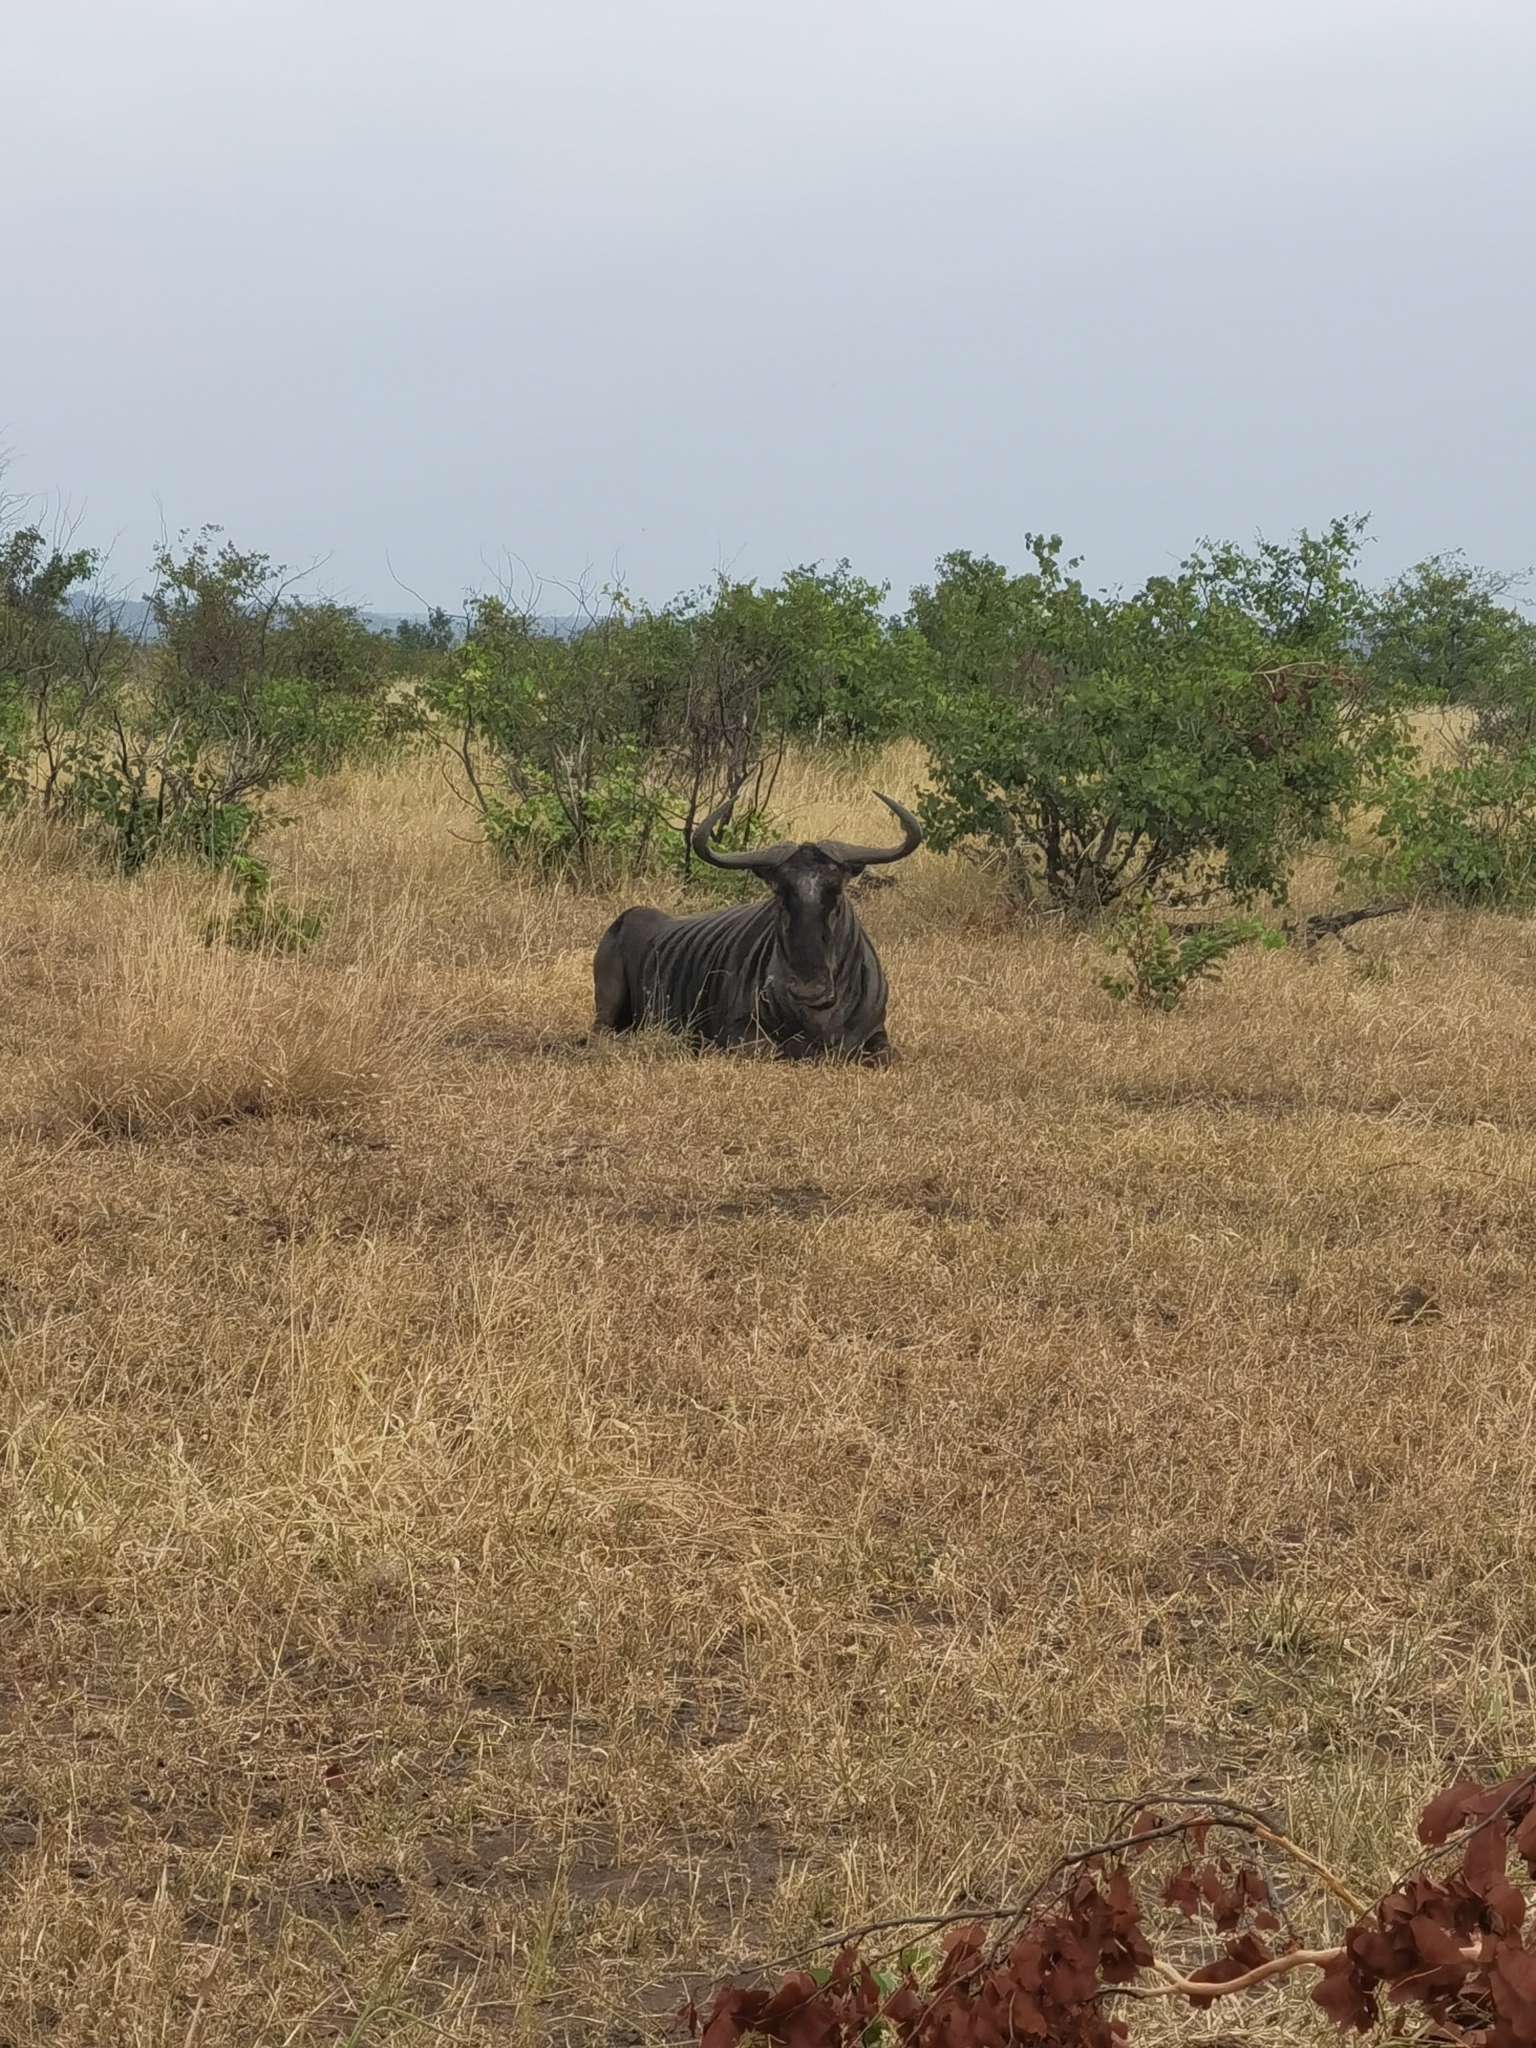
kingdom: Animalia
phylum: Chordata
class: Mammalia
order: Artiodactyla
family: Bovidae
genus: Connochaetes
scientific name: Connochaetes taurinus
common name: Blue wildebeest
